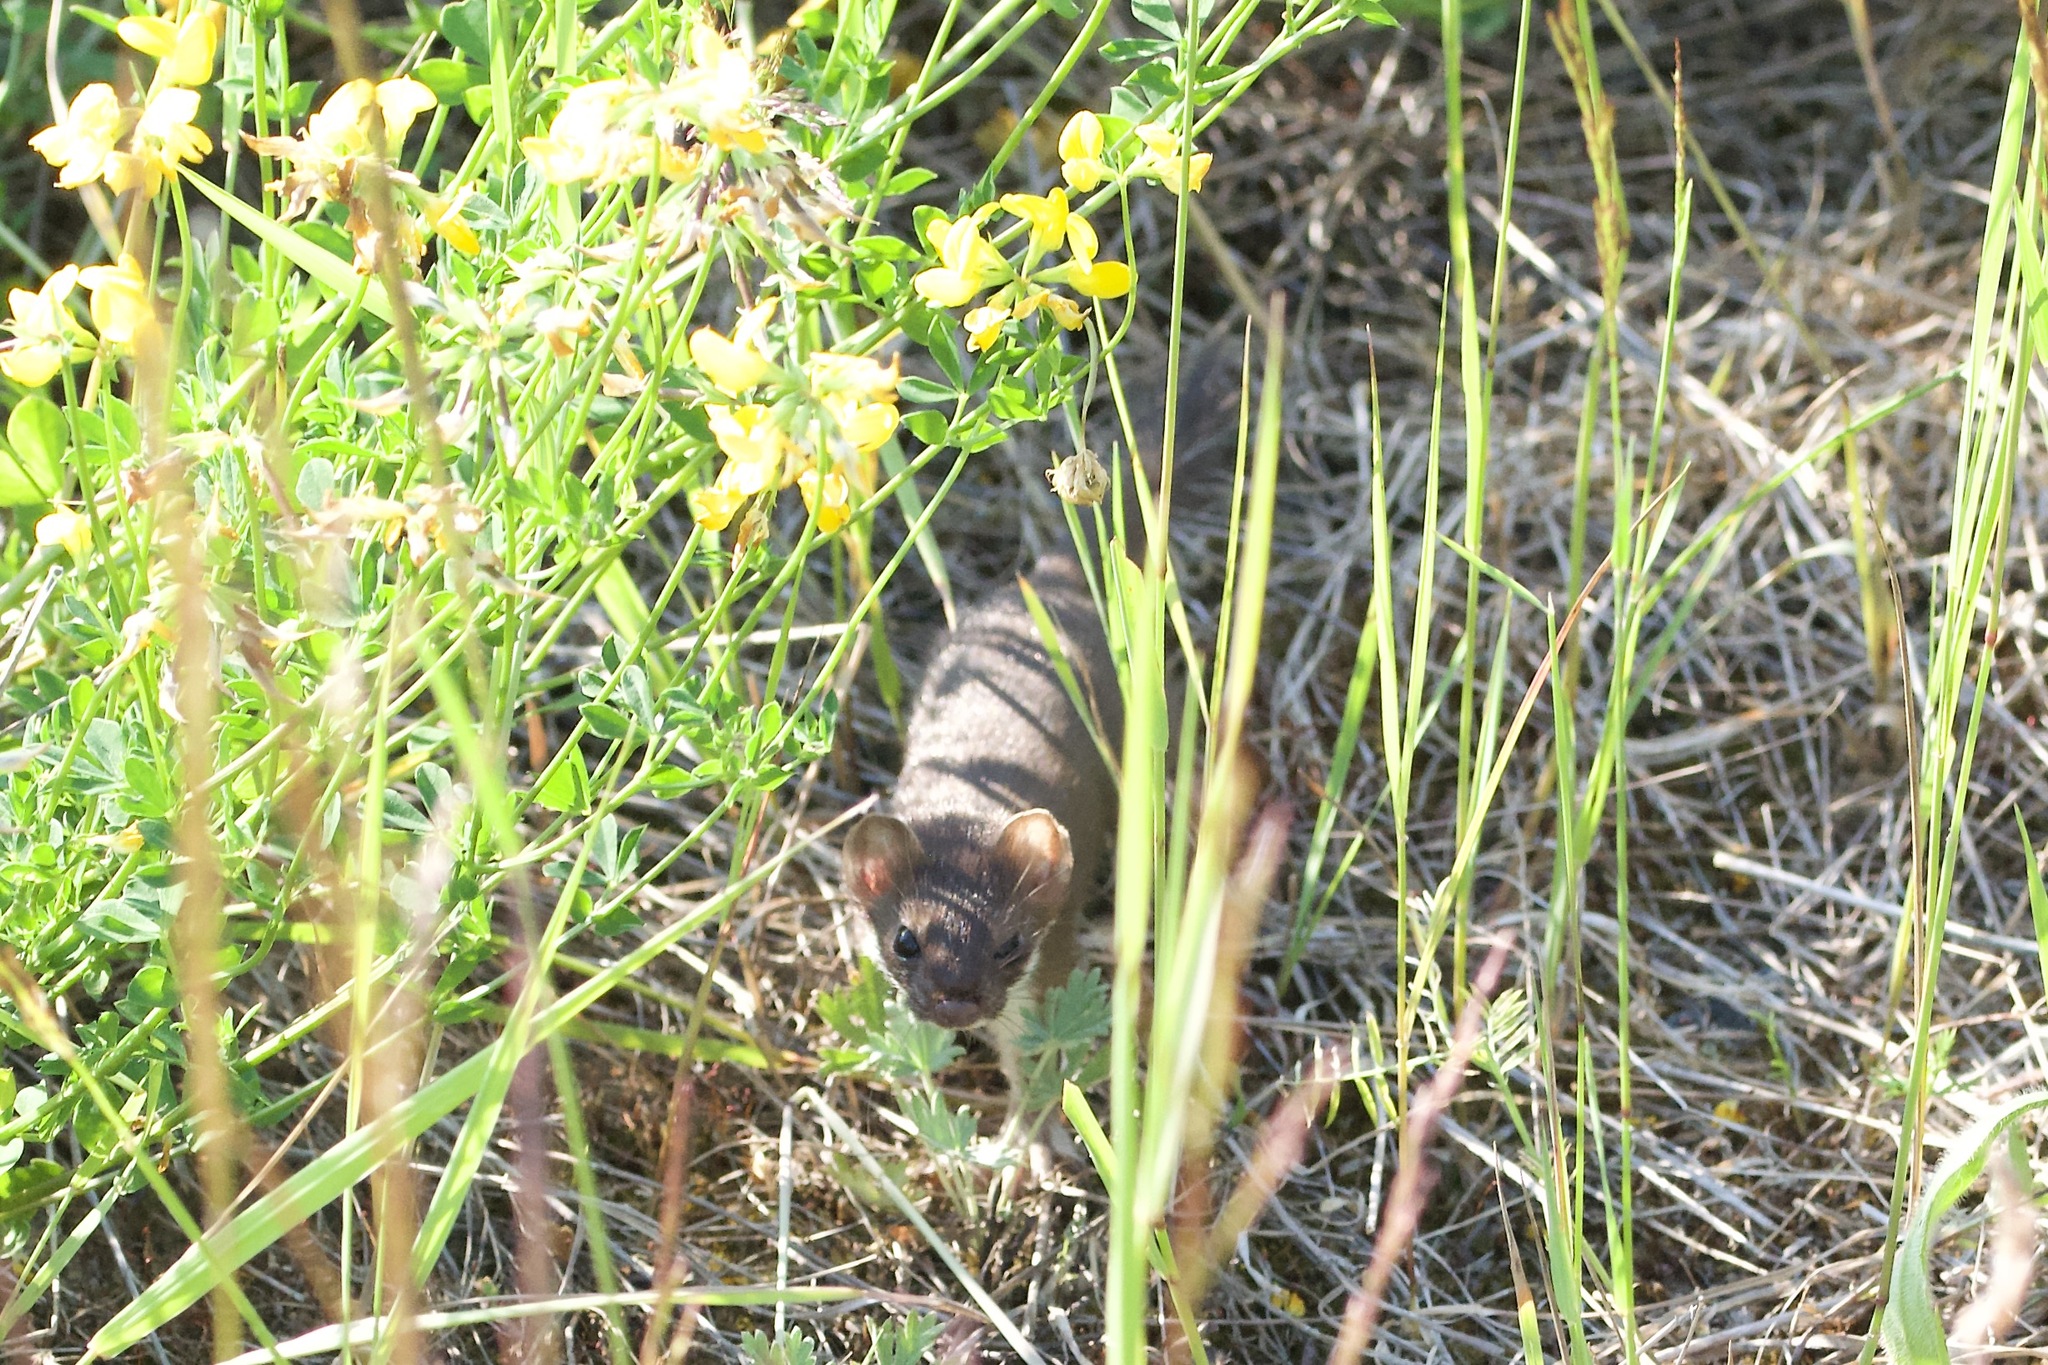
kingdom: Animalia
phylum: Chordata
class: Mammalia
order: Carnivora
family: Mustelidae
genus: Mustela
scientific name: Mustela erminea
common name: Stoat
